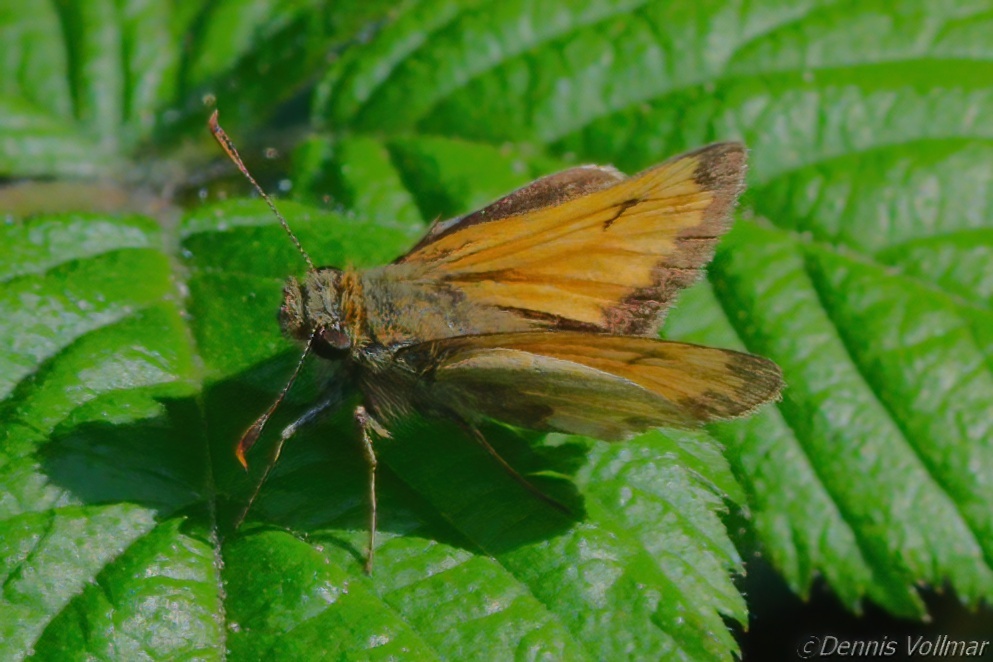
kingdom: Animalia
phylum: Arthropoda
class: Insecta
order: Lepidoptera
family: Hesperiidae
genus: Lon
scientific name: Lon hobomok
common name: Hobomok skipper
